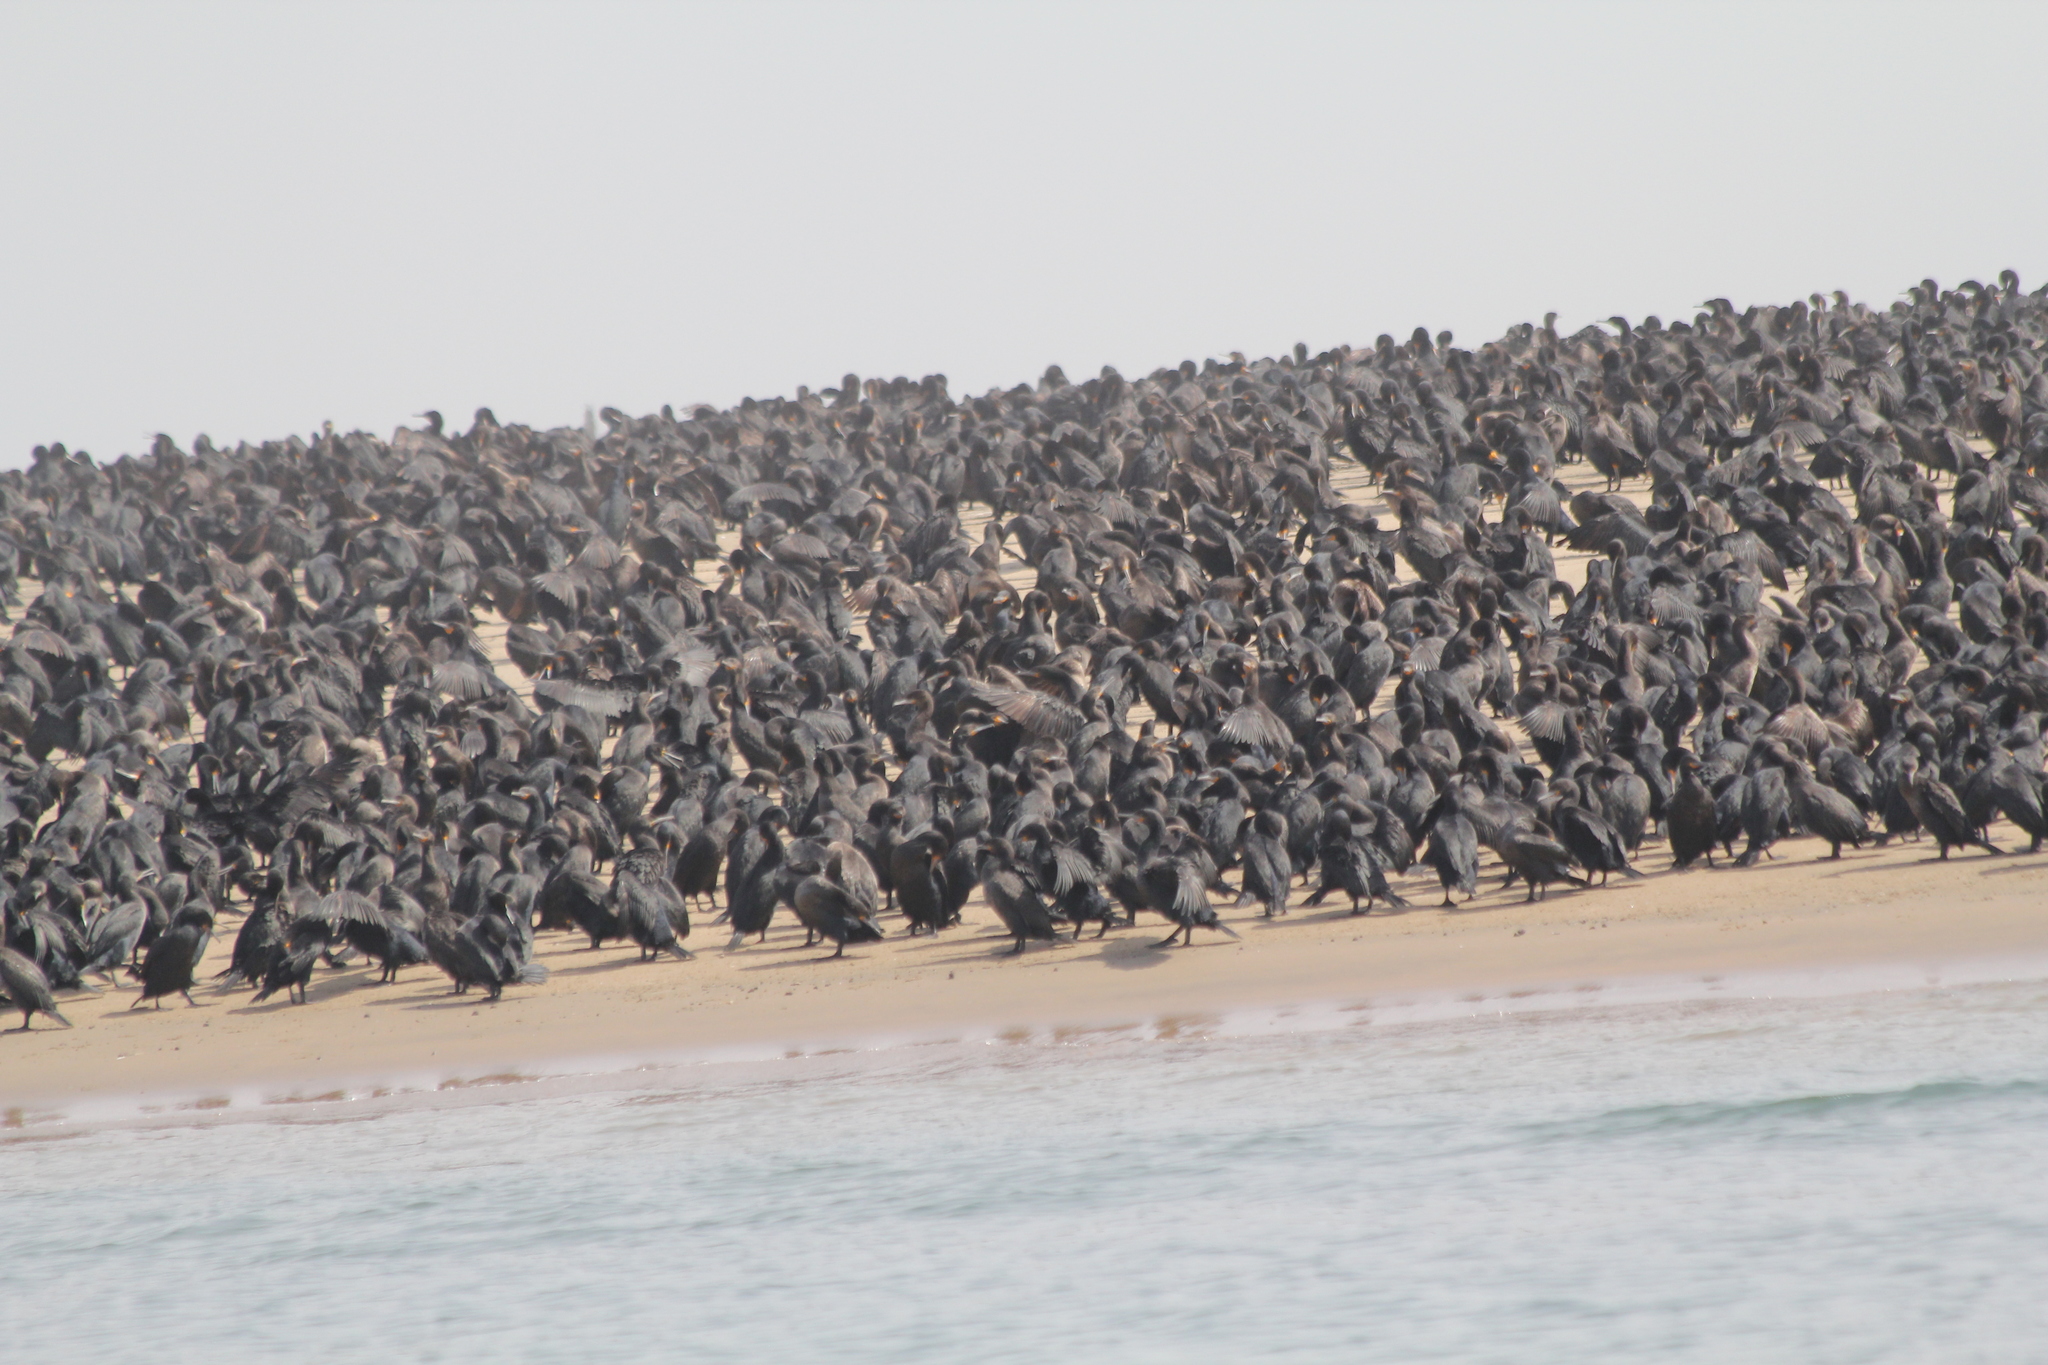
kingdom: Animalia
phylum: Chordata
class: Aves
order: Suliformes
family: Phalacrocoracidae
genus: Phalacrocorax
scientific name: Phalacrocorax capensis
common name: Cape cormorant
